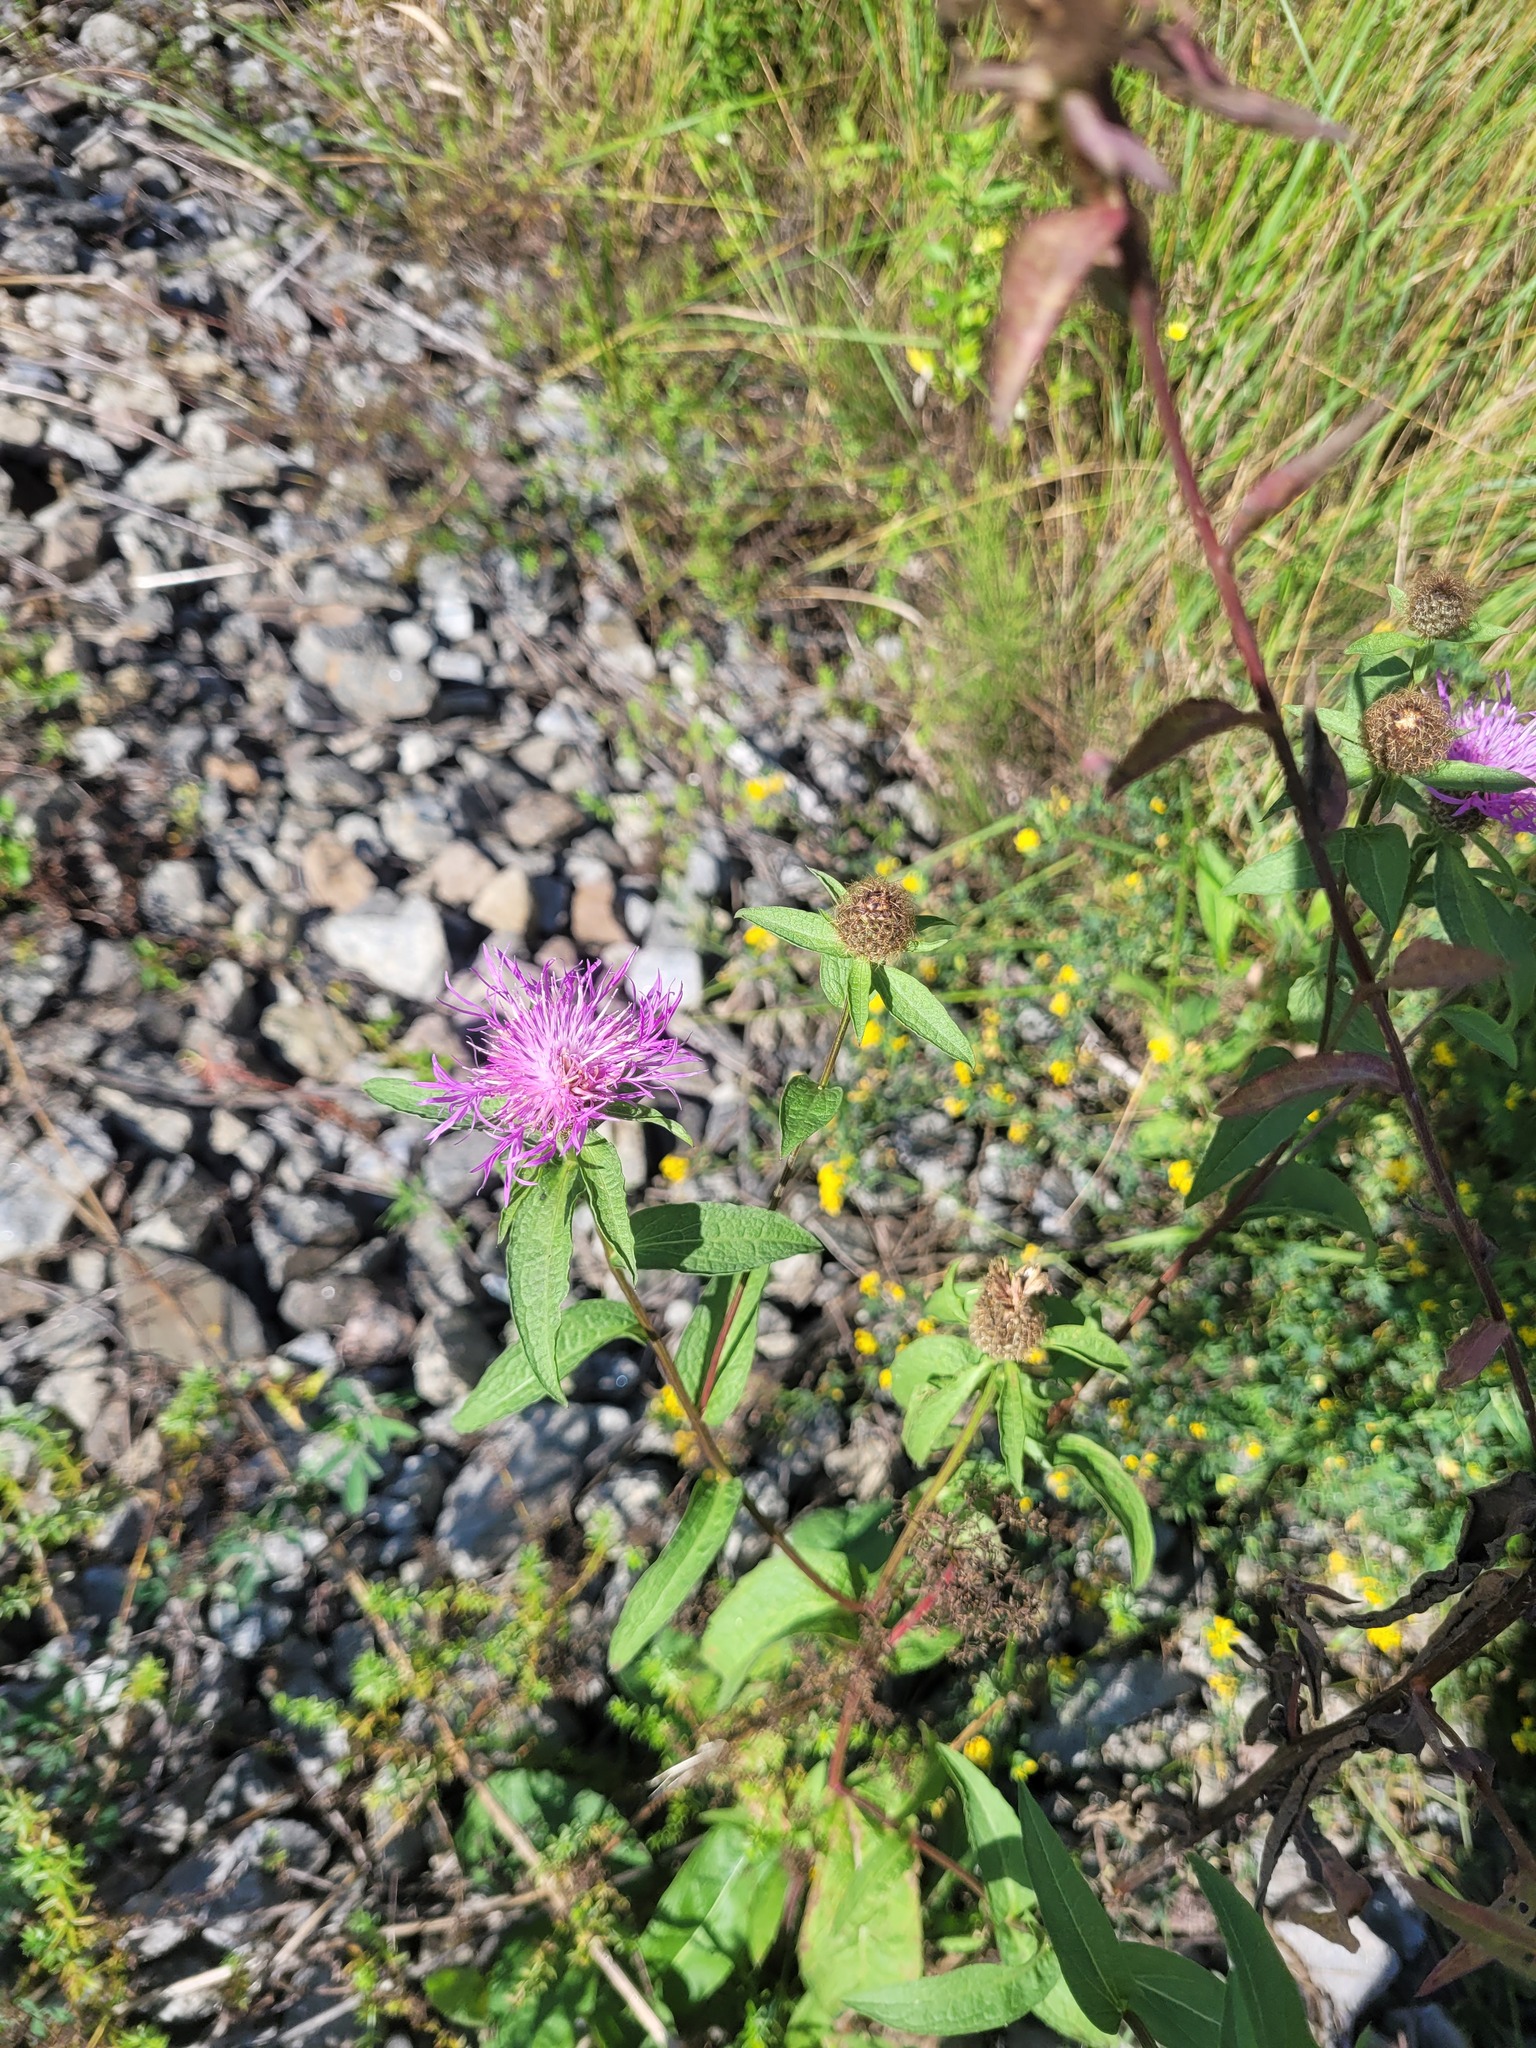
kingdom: Plantae
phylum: Tracheophyta
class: Magnoliopsida
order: Asterales
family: Asteraceae
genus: Centaurea
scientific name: Centaurea pseudophrygia
